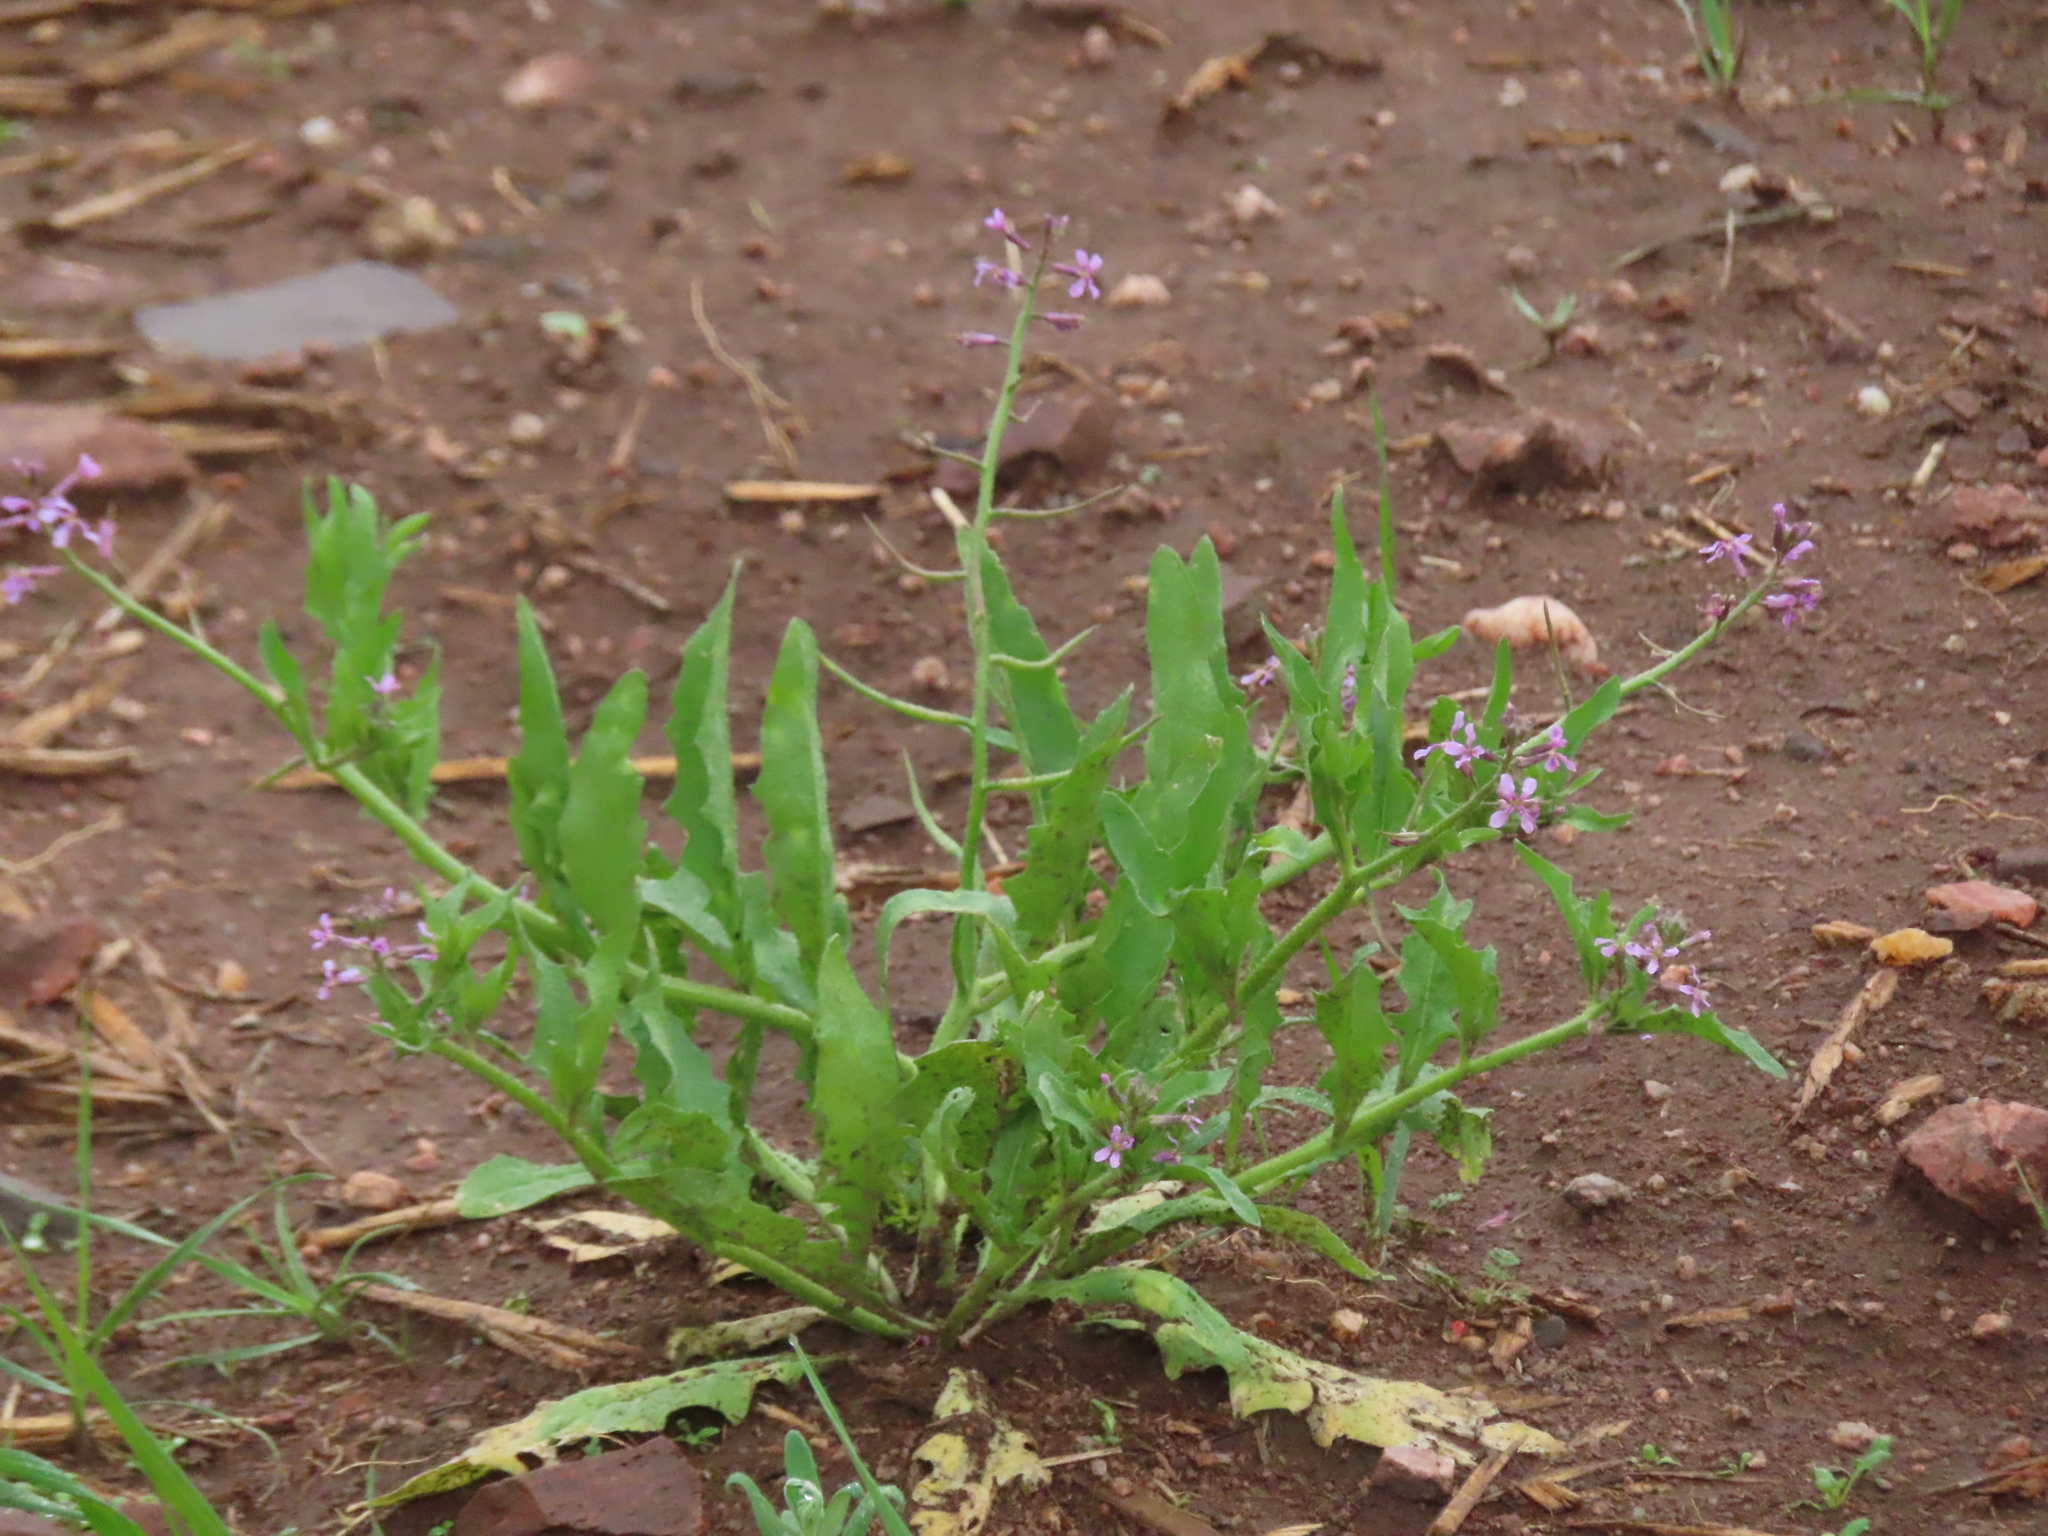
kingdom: Plantae
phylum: Tracheophyta
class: Magnoliopsida
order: Brassicales
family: Brassicaceae
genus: Chorispora
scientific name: Chorispora tenella
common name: Crossflower
